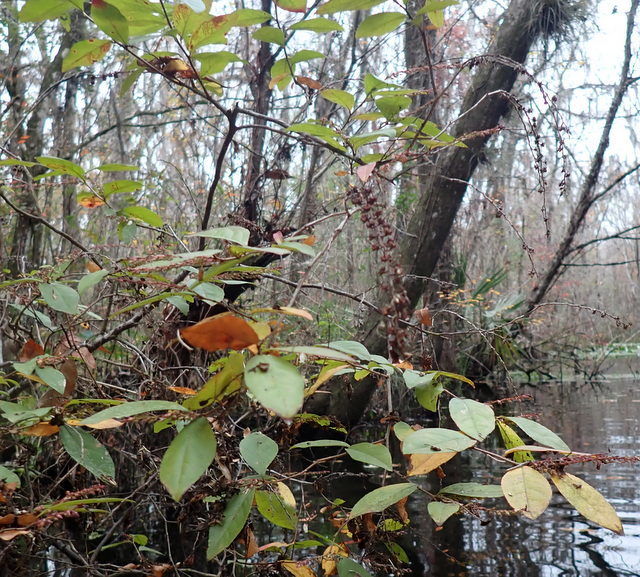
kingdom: Plantae
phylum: Tracheophyta
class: Magnoliopsida
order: Ericales
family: Ericaceae
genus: Eubotrys
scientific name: Eubotrys racemosa
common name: Fetterbush
